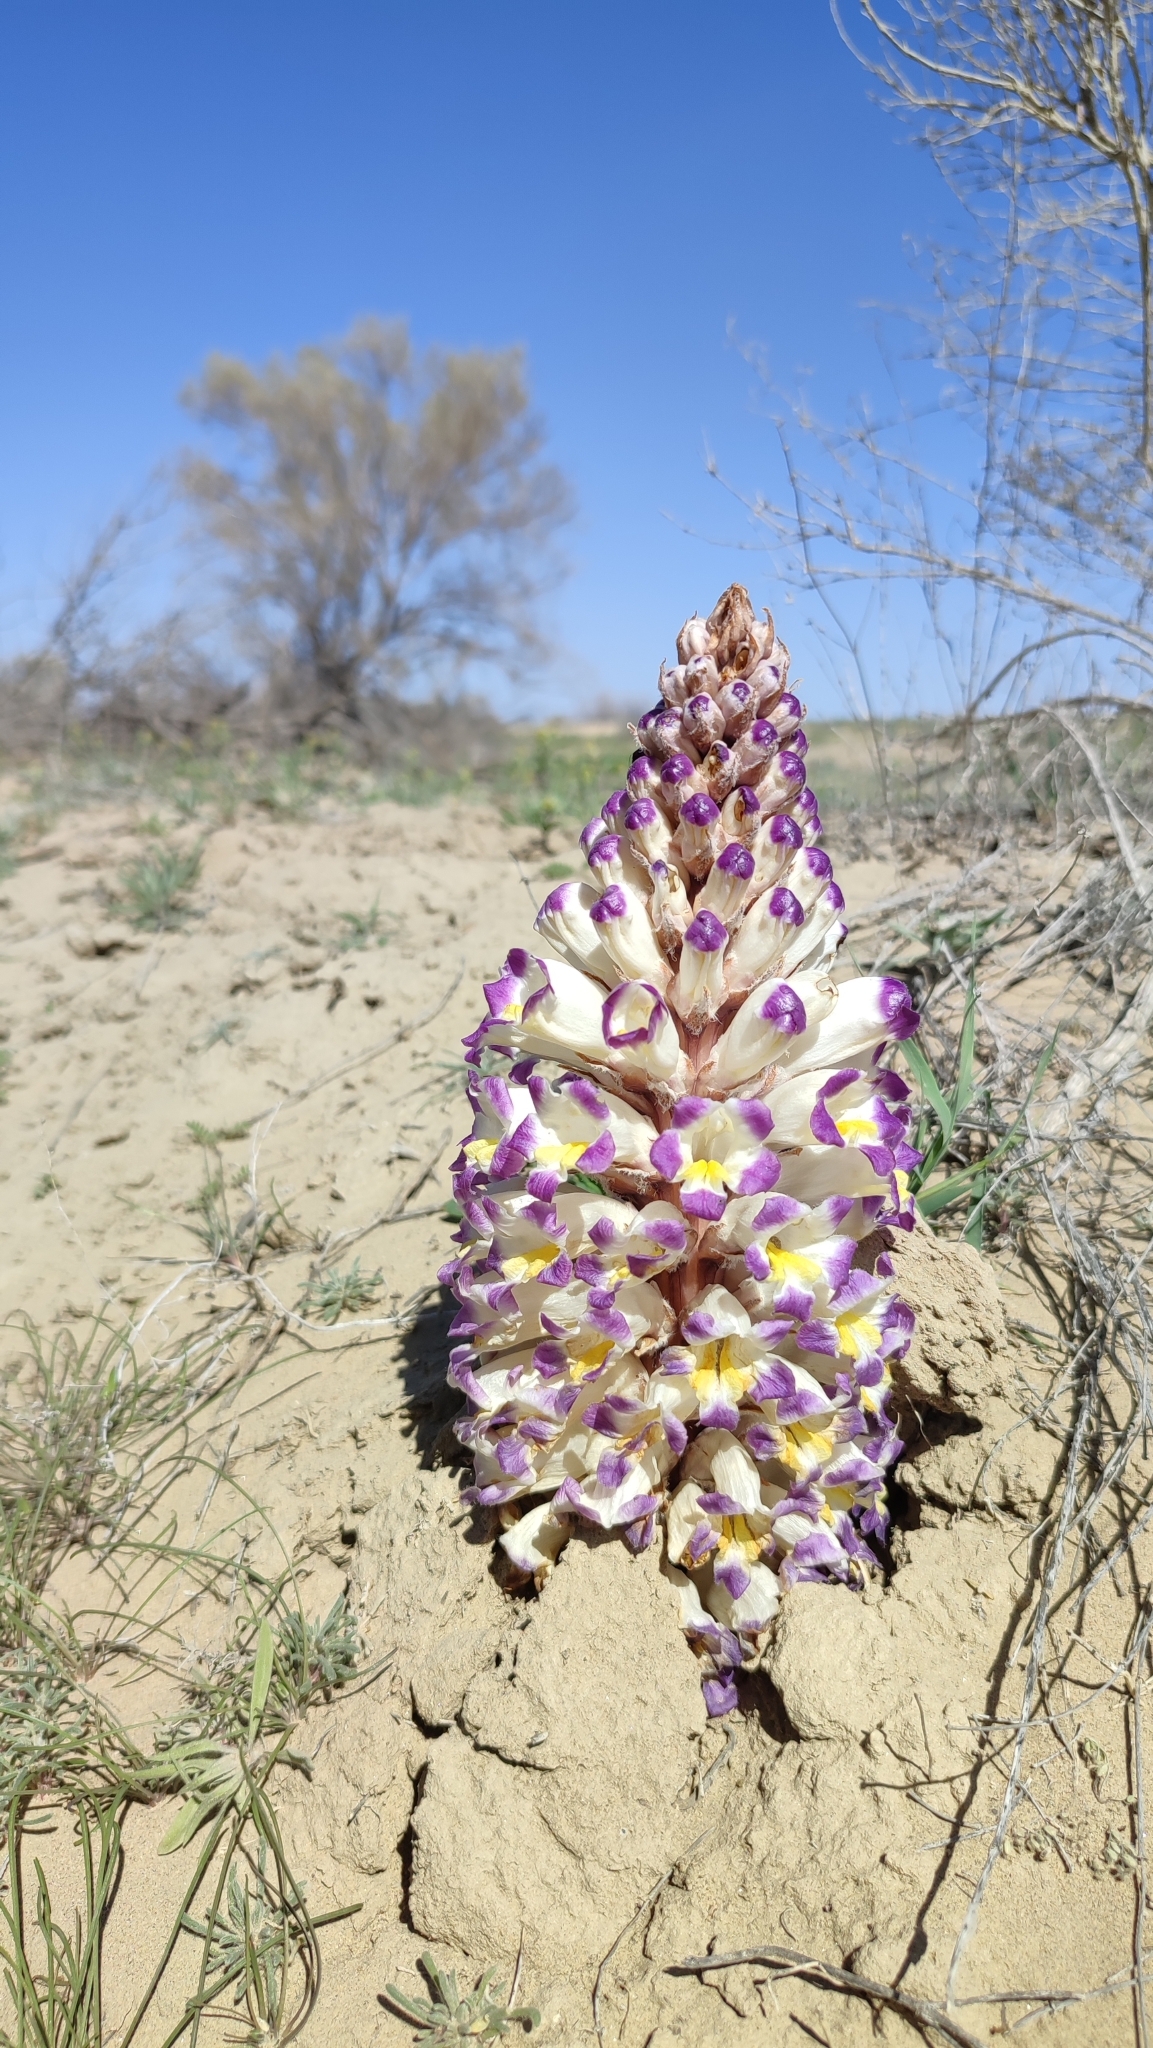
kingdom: Plantae
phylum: Tracheophyta
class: Magnoliopsida
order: Lamiales
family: Orobanchaceae
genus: Cistanche
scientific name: Cistanche salsa
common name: Broomrape
